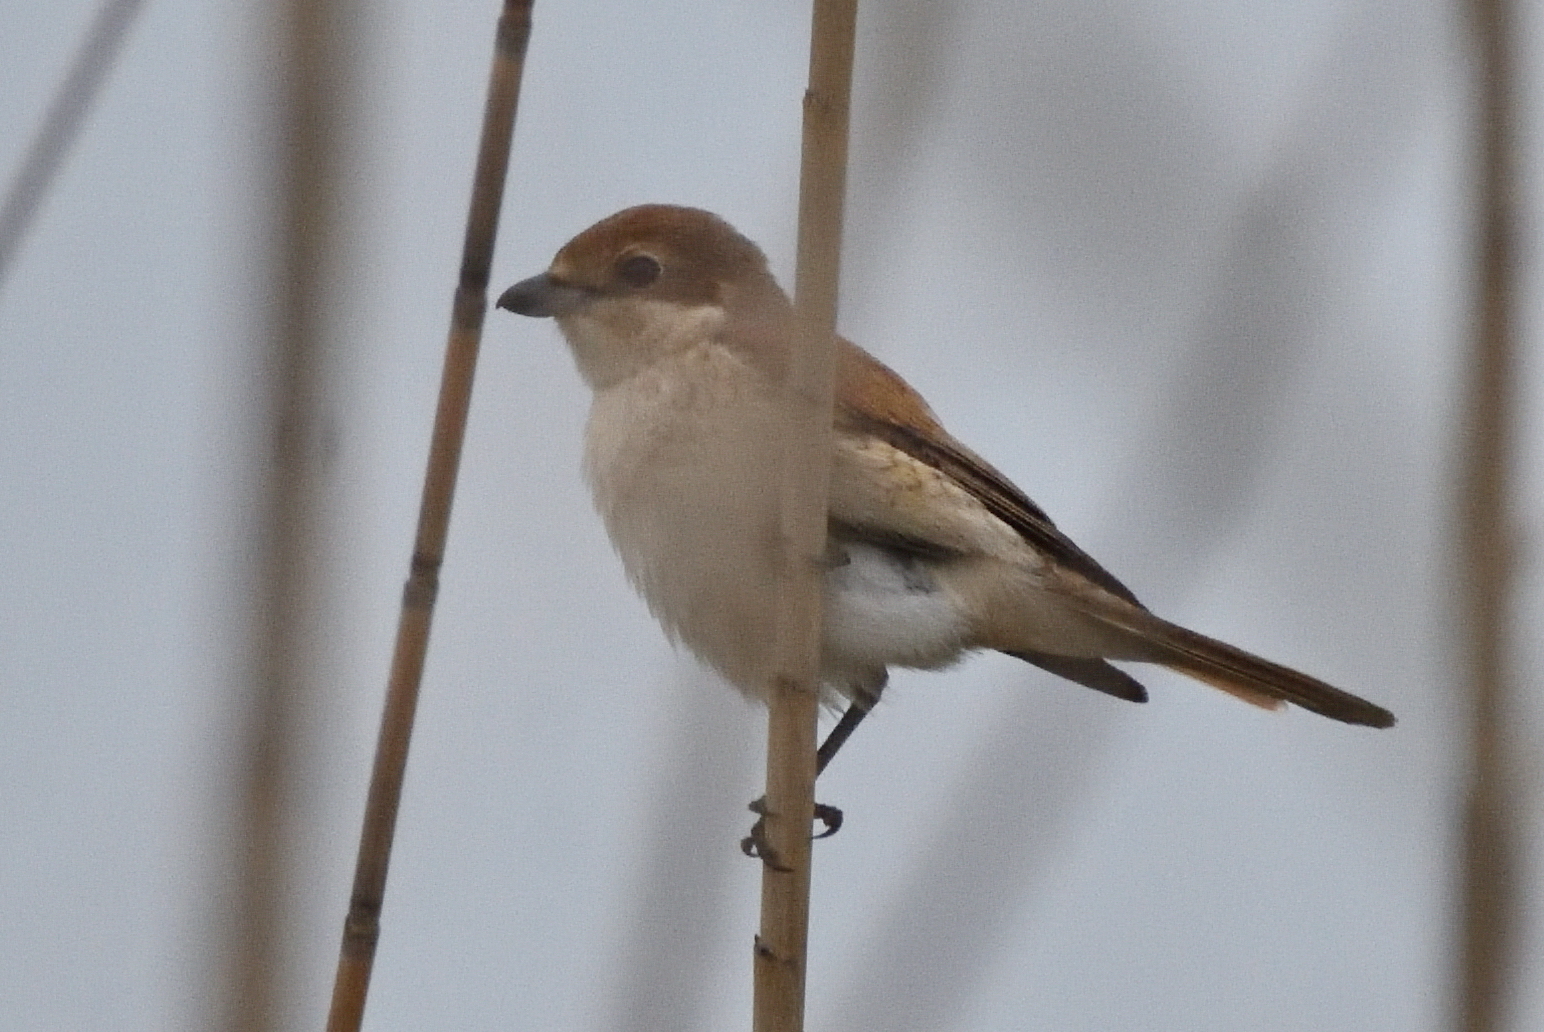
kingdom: Animalia
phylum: Chordata
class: Aves
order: Passeriformes
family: Laniidae
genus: Lanius
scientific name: Lanius collurio
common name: Red-backed shrike
